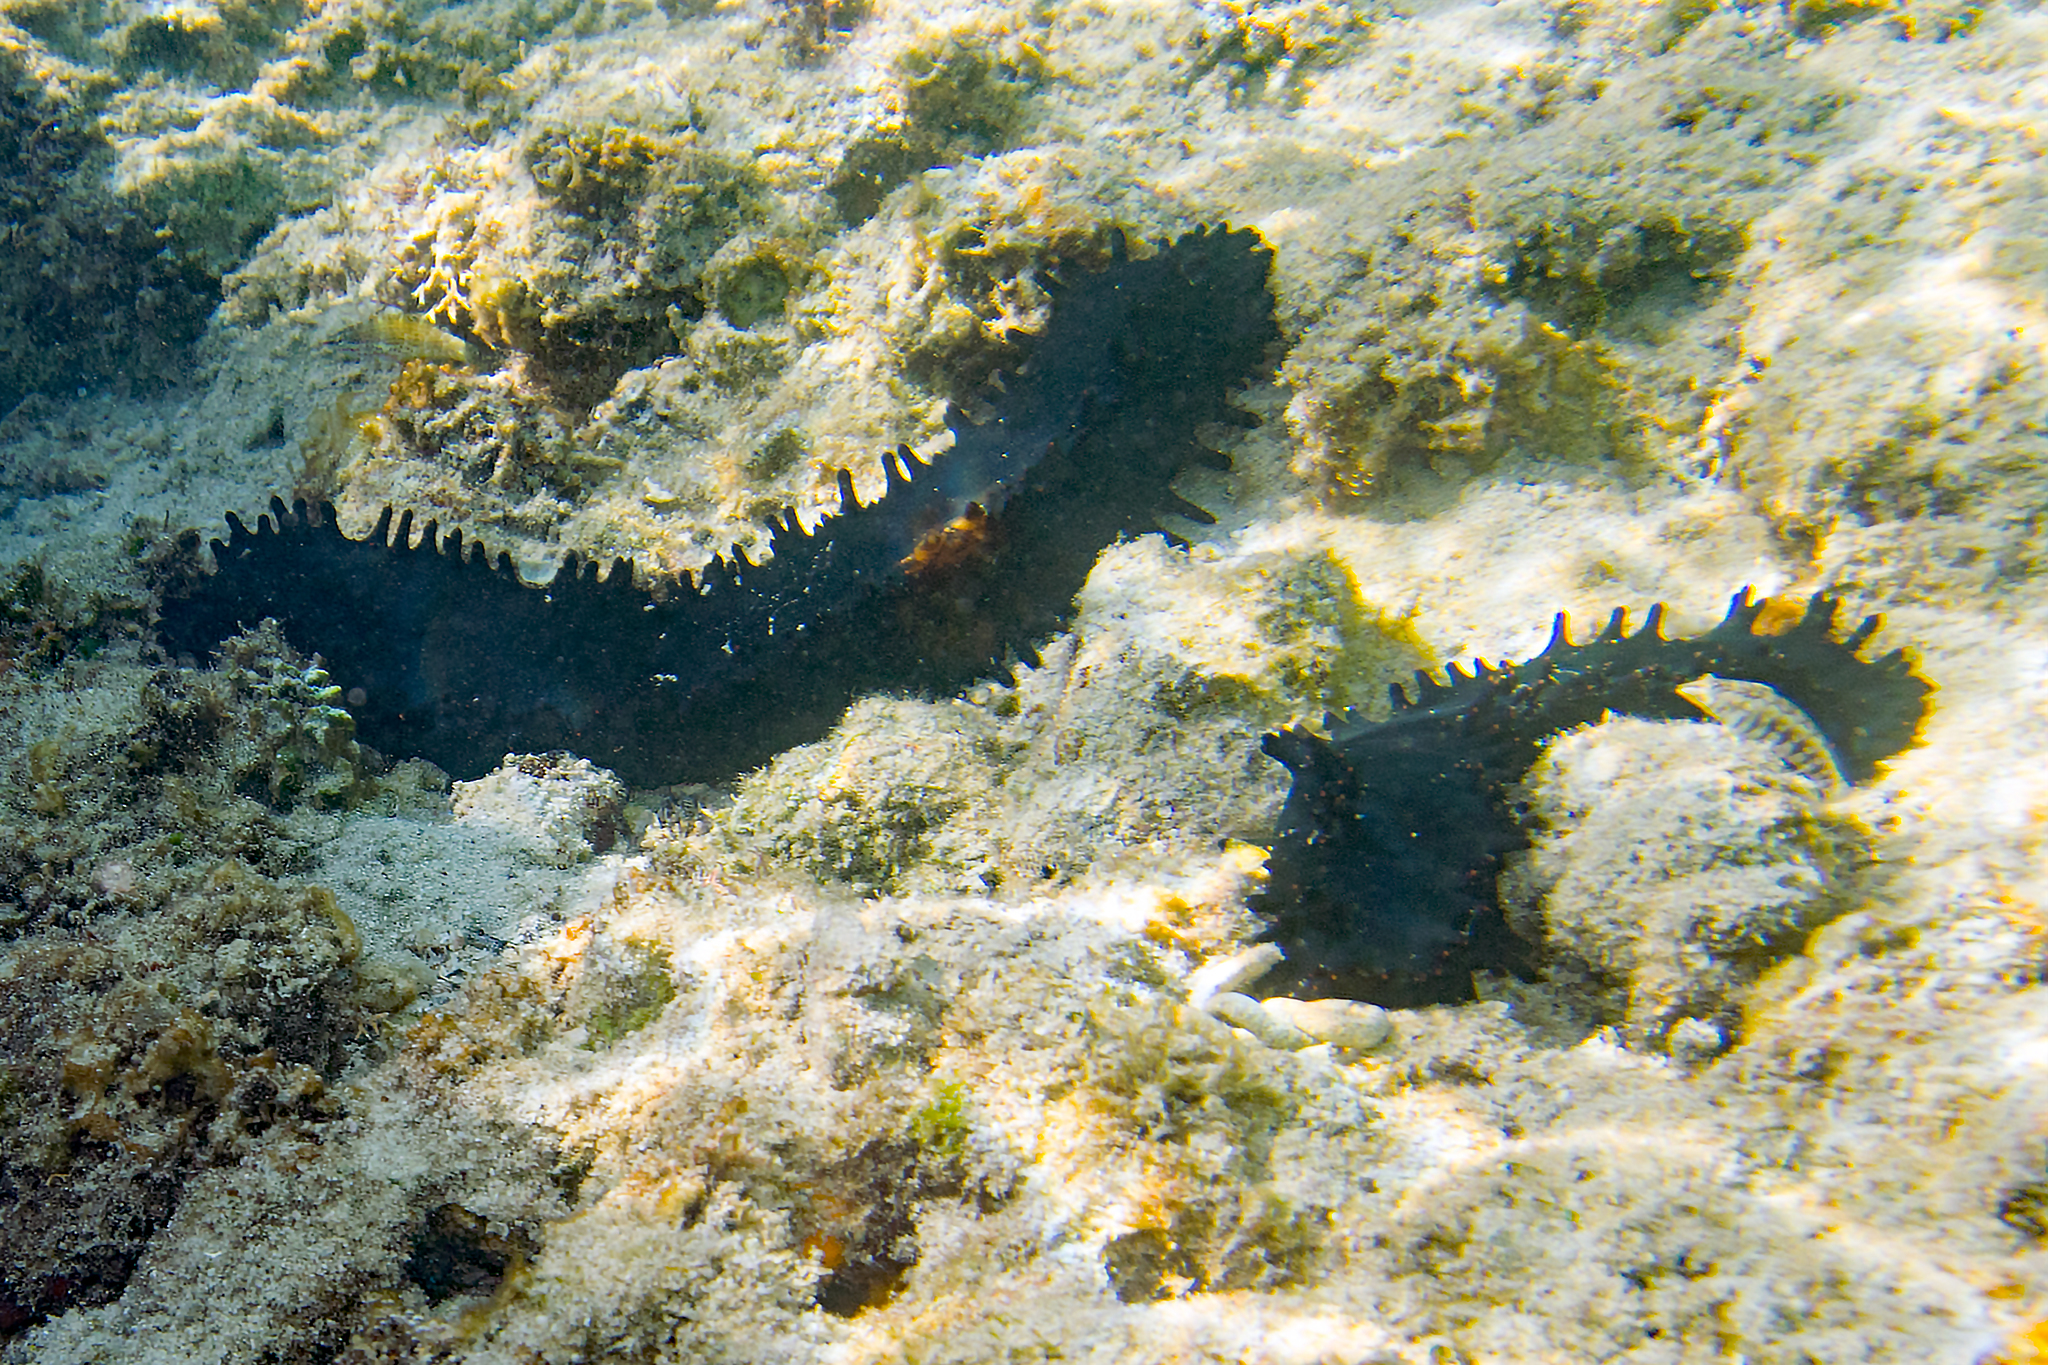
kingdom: Animalia
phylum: Echinodermata
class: Holothuroidea
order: Synallactida
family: Stichopodidae
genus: Stichopus
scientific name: Stichopus chloronotus
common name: Greenfish
